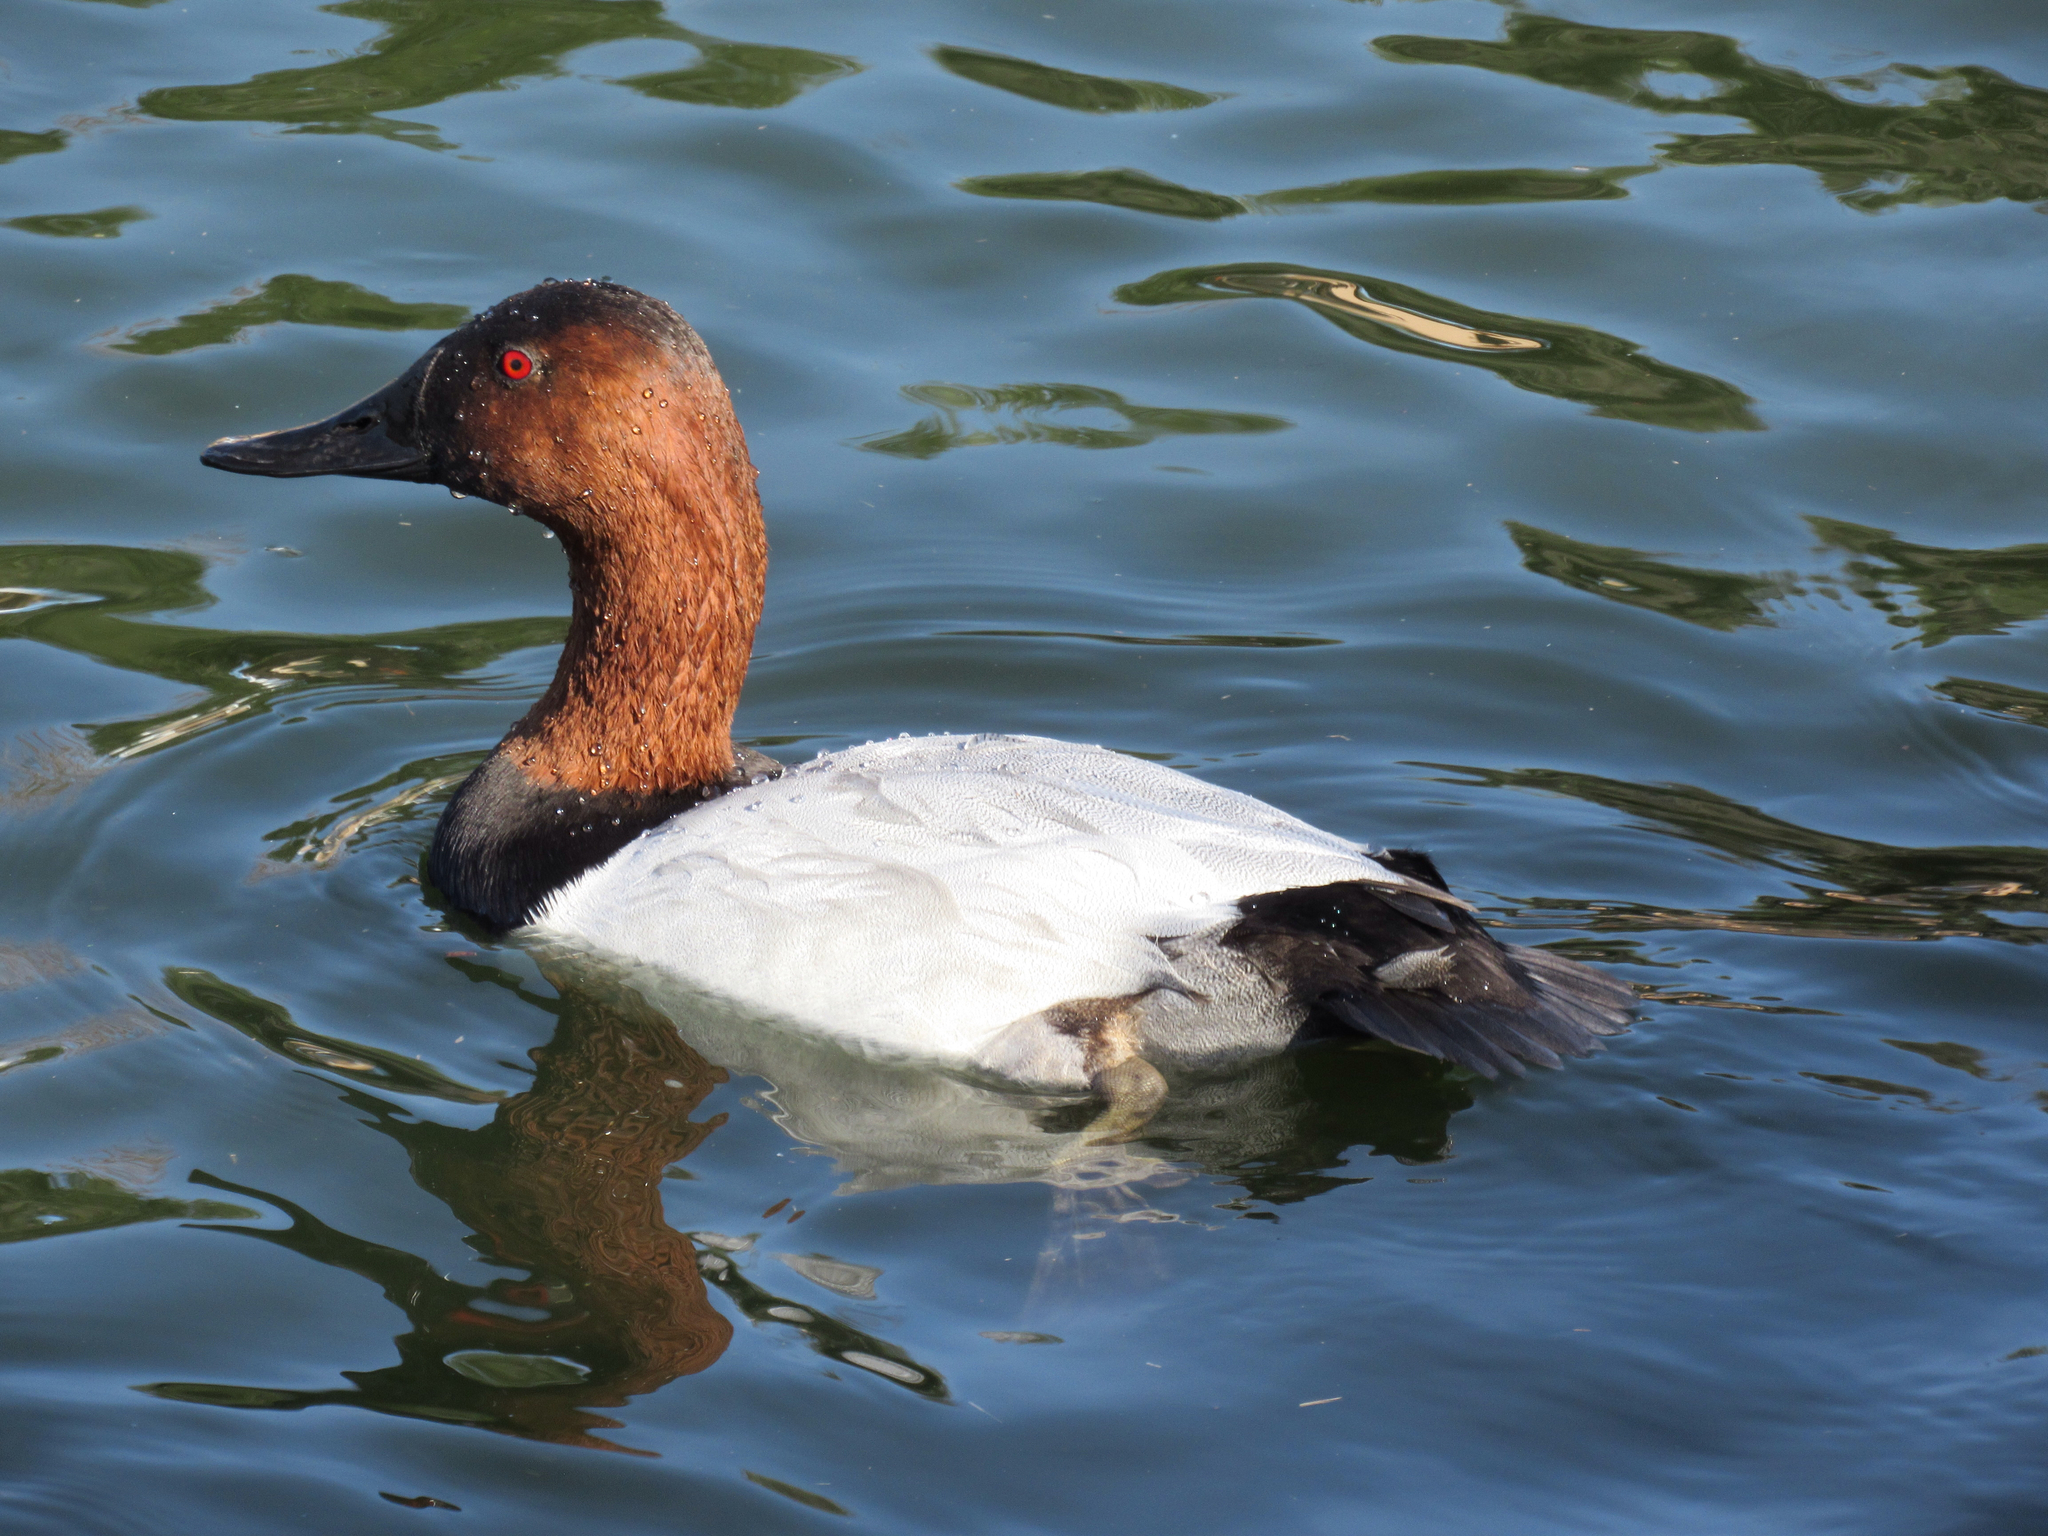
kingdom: Animalia
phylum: Chordata
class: Aves
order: Anseriformes
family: Anatidae
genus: Aythya
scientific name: Aythya valisineria
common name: Canvasback
